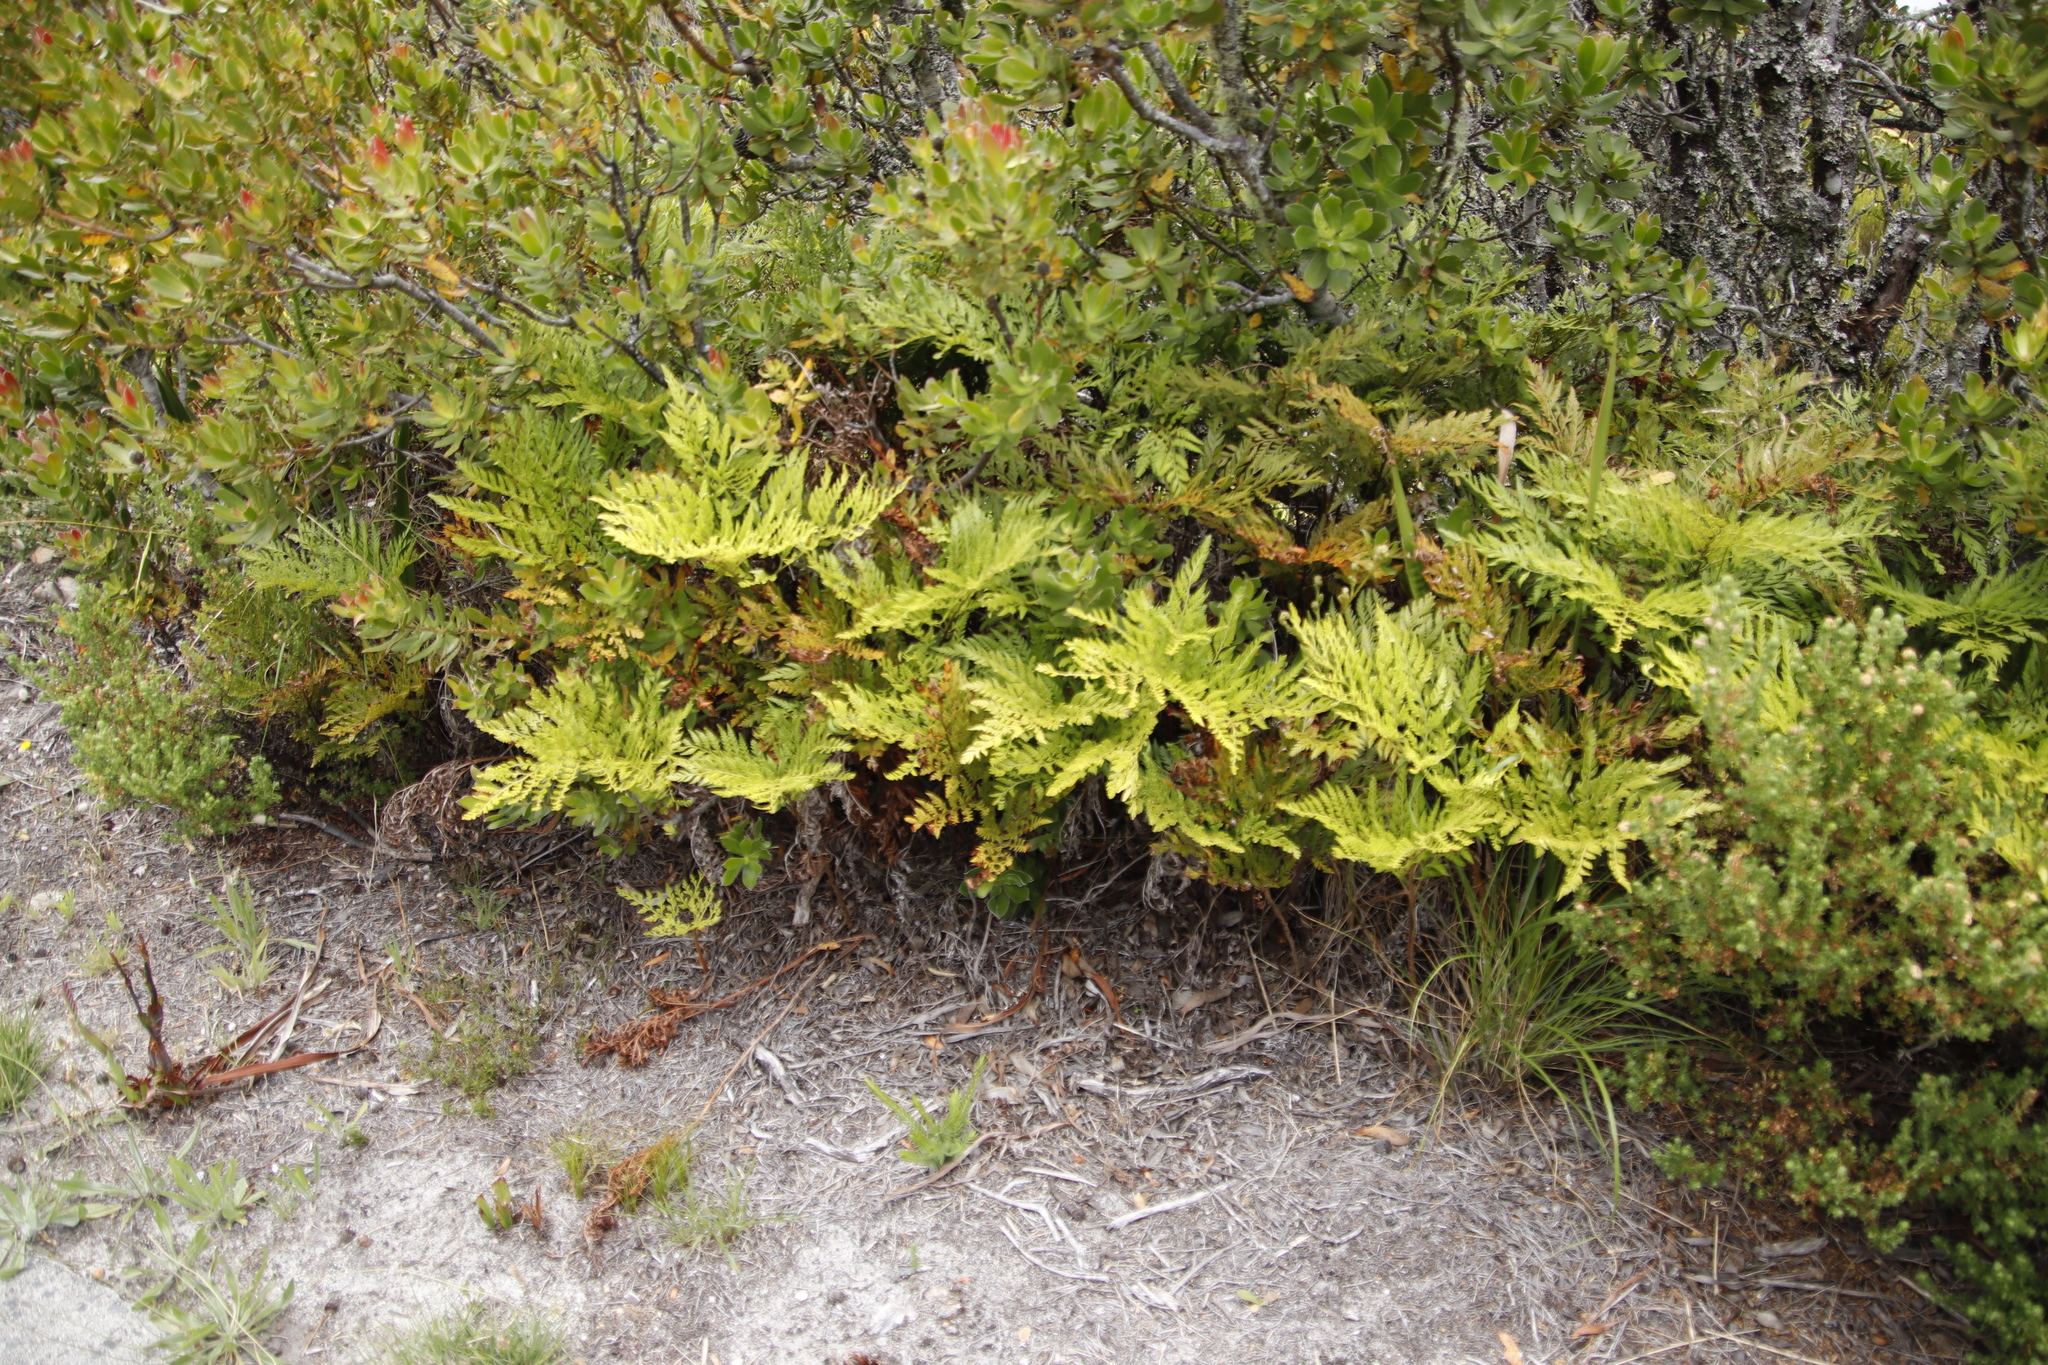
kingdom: Plantae
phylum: Tracheophyta
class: Polypodiopsida
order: Polypodiales
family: Dryopteridaceae
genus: Rumohra
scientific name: Rumohra adiantiformis
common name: Leather fern
